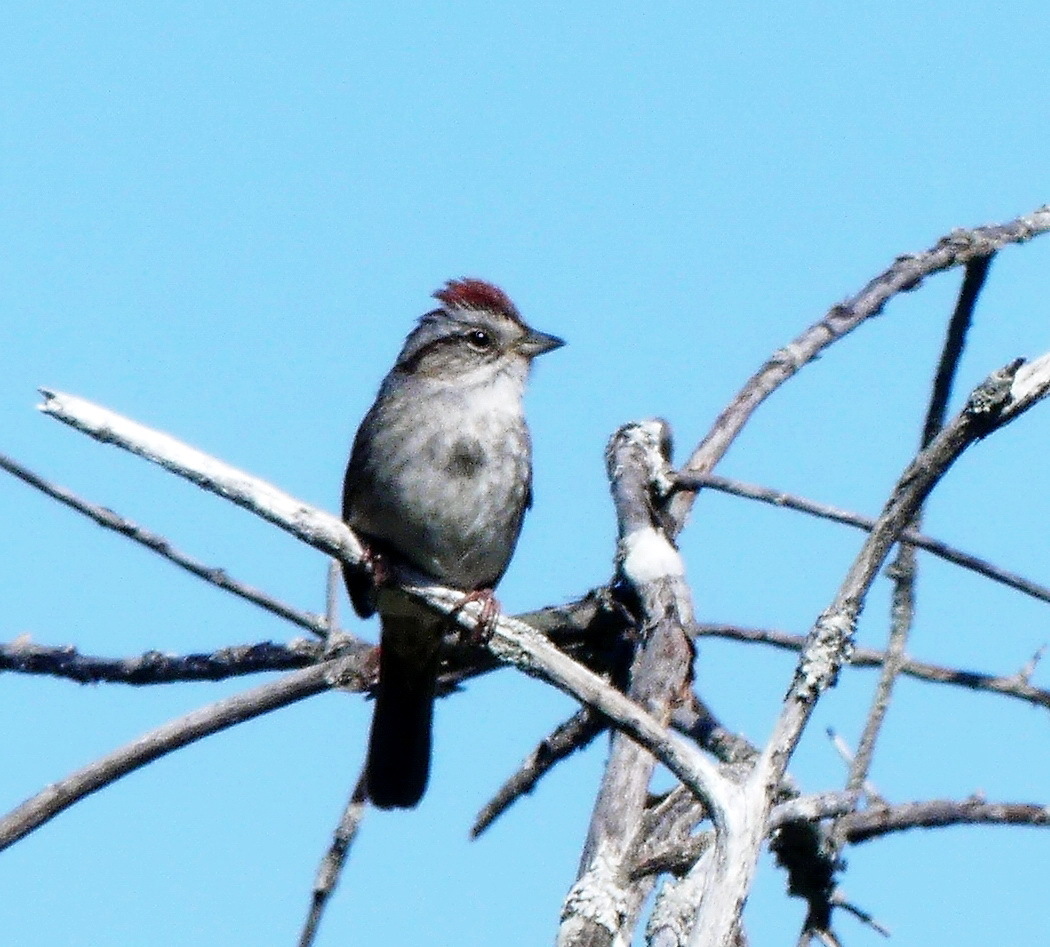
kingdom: Animalia
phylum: Chordata
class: Aves
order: Passeriformes
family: Passerellidae
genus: Melospiza
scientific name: Melospiza georgiana
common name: Swamp sparrow
